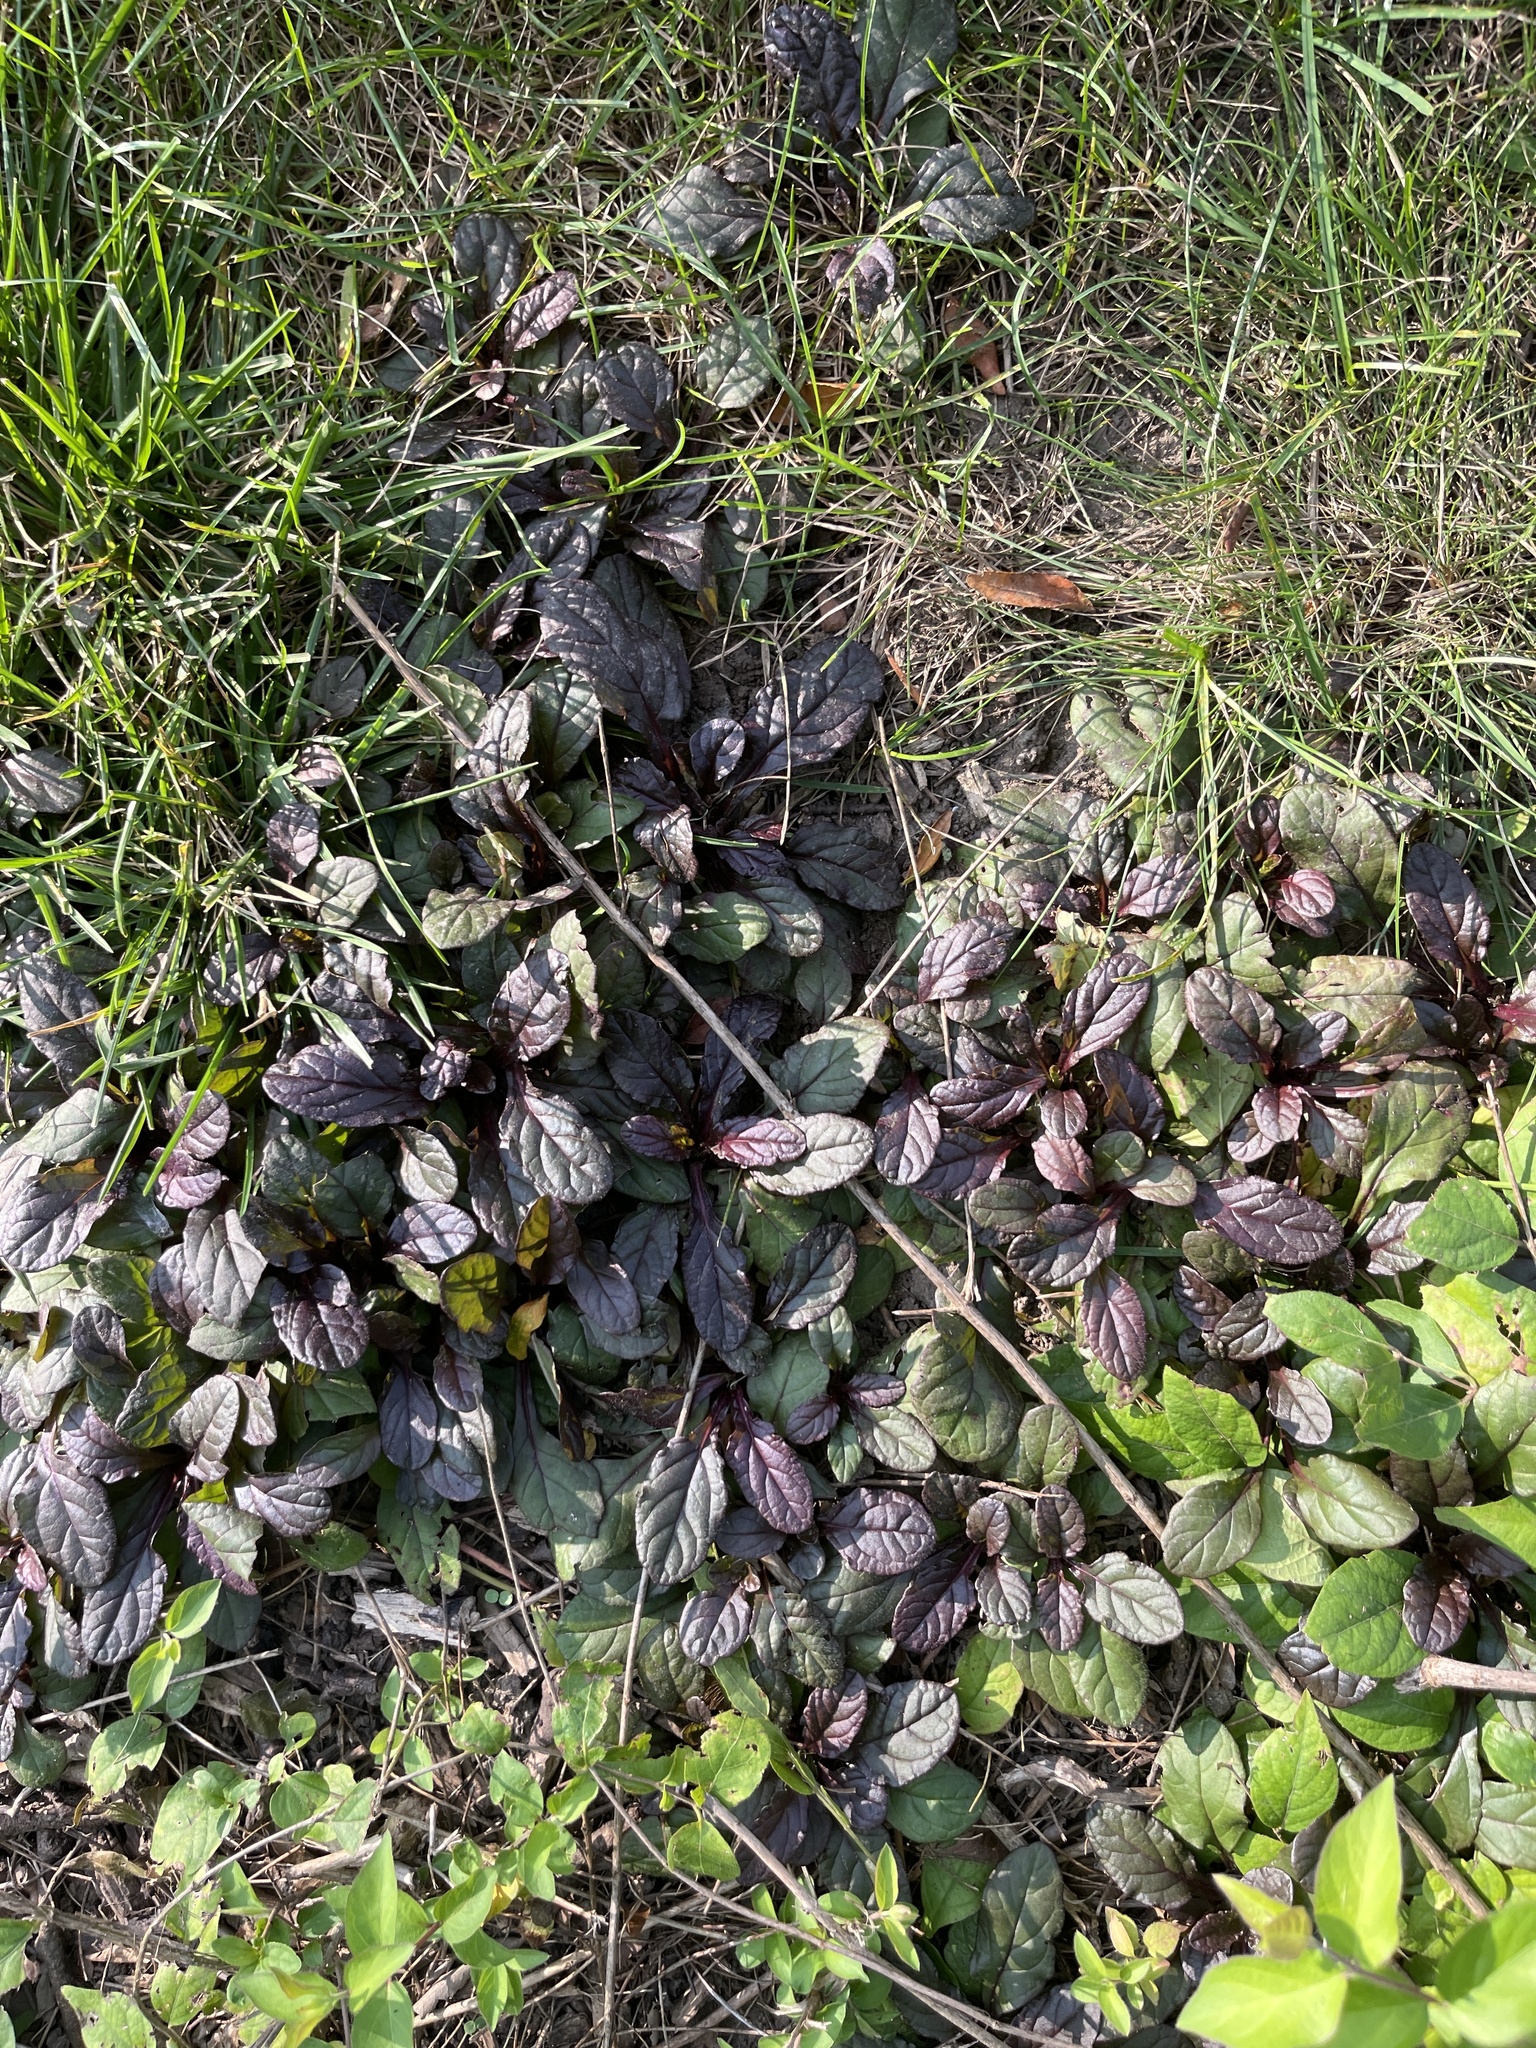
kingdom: Plantae
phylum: Tracheophyta
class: Magnoliopsida
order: Lamiales
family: Lamiaceae
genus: Ajuga
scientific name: Ajuga reptans
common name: Bugle
